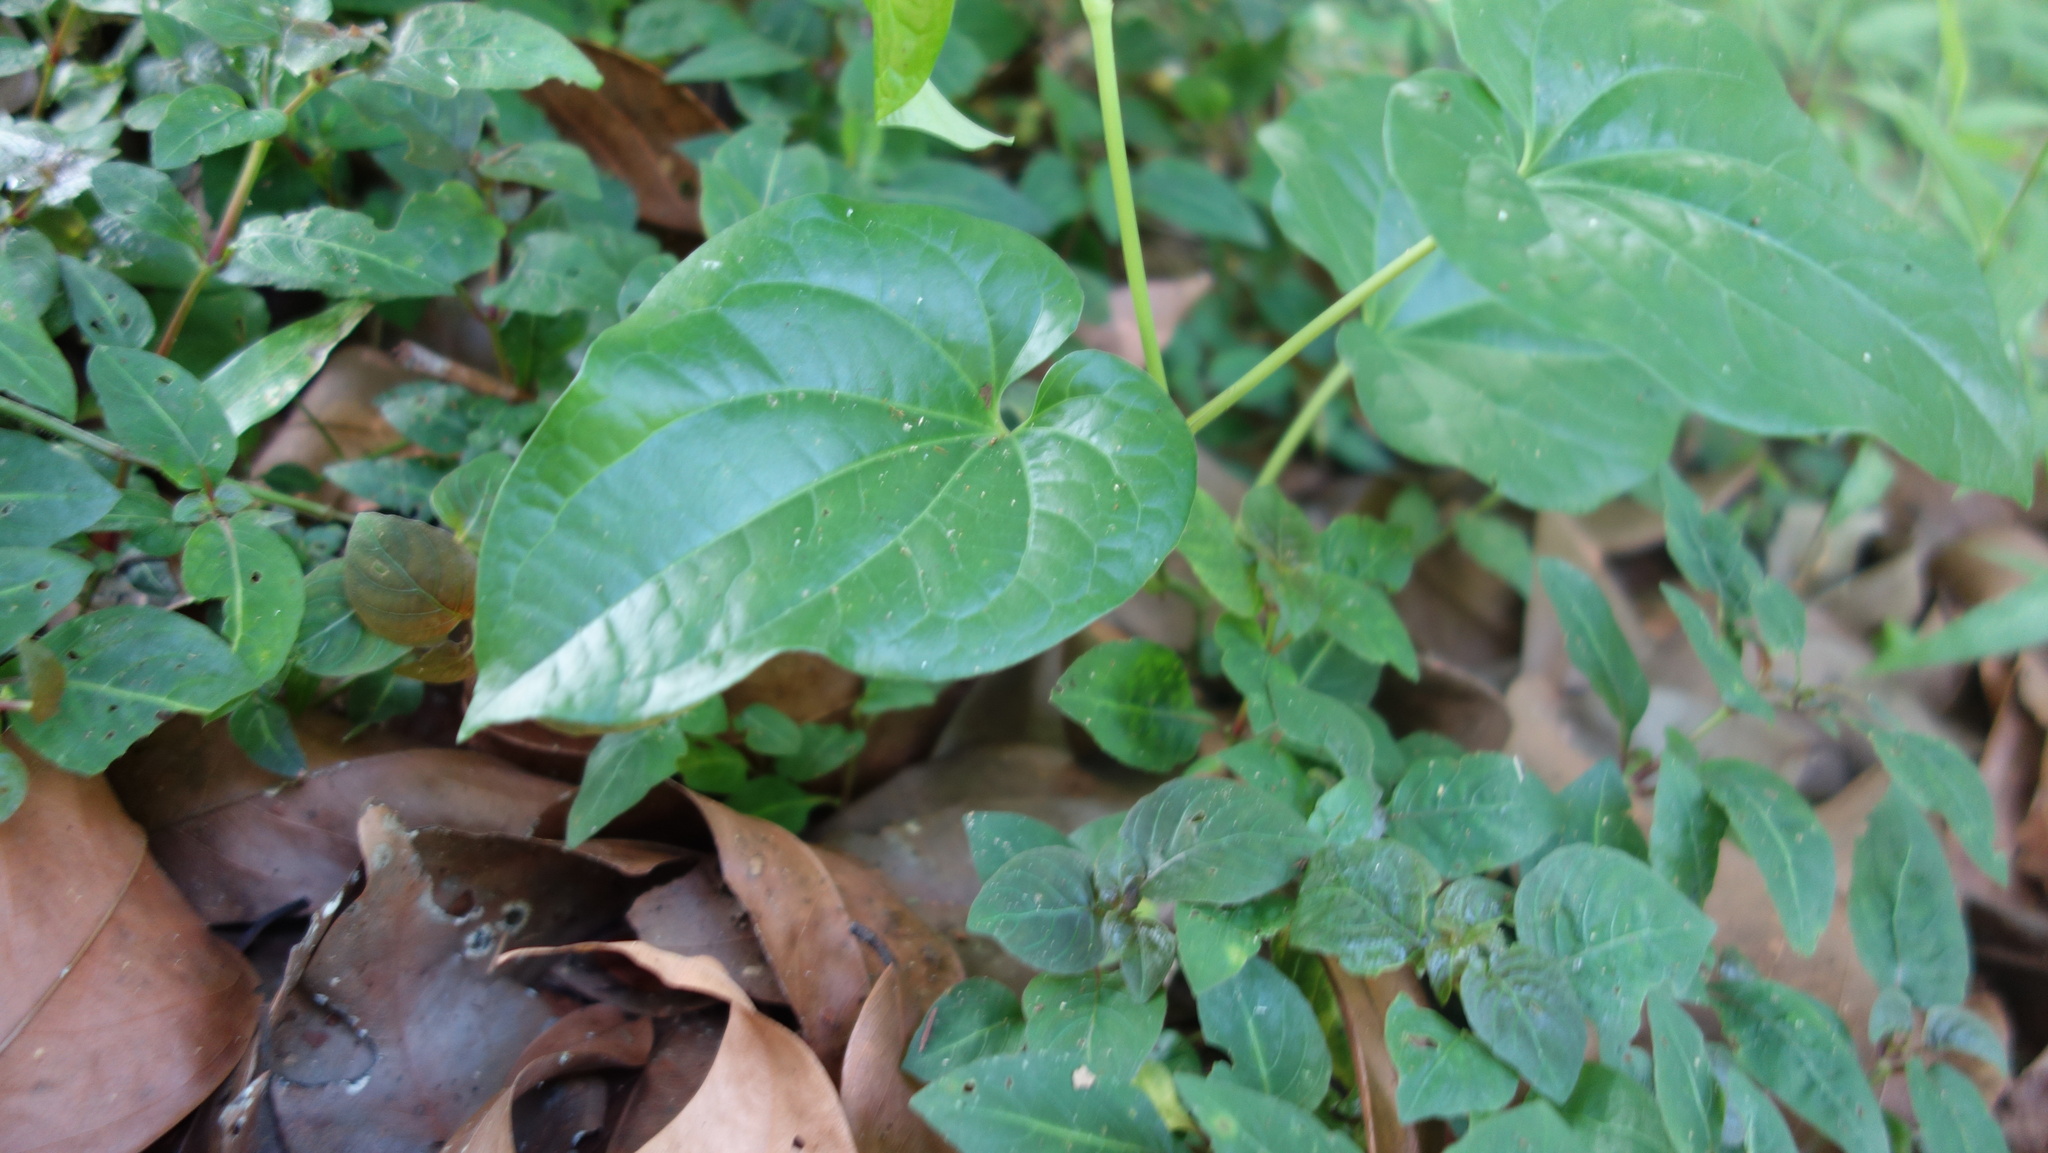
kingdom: Plantae
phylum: Tracheophyta
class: Magnoliopsida
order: Piperales
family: Piperaceae
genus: Piper
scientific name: Piper longum
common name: Long pepper
